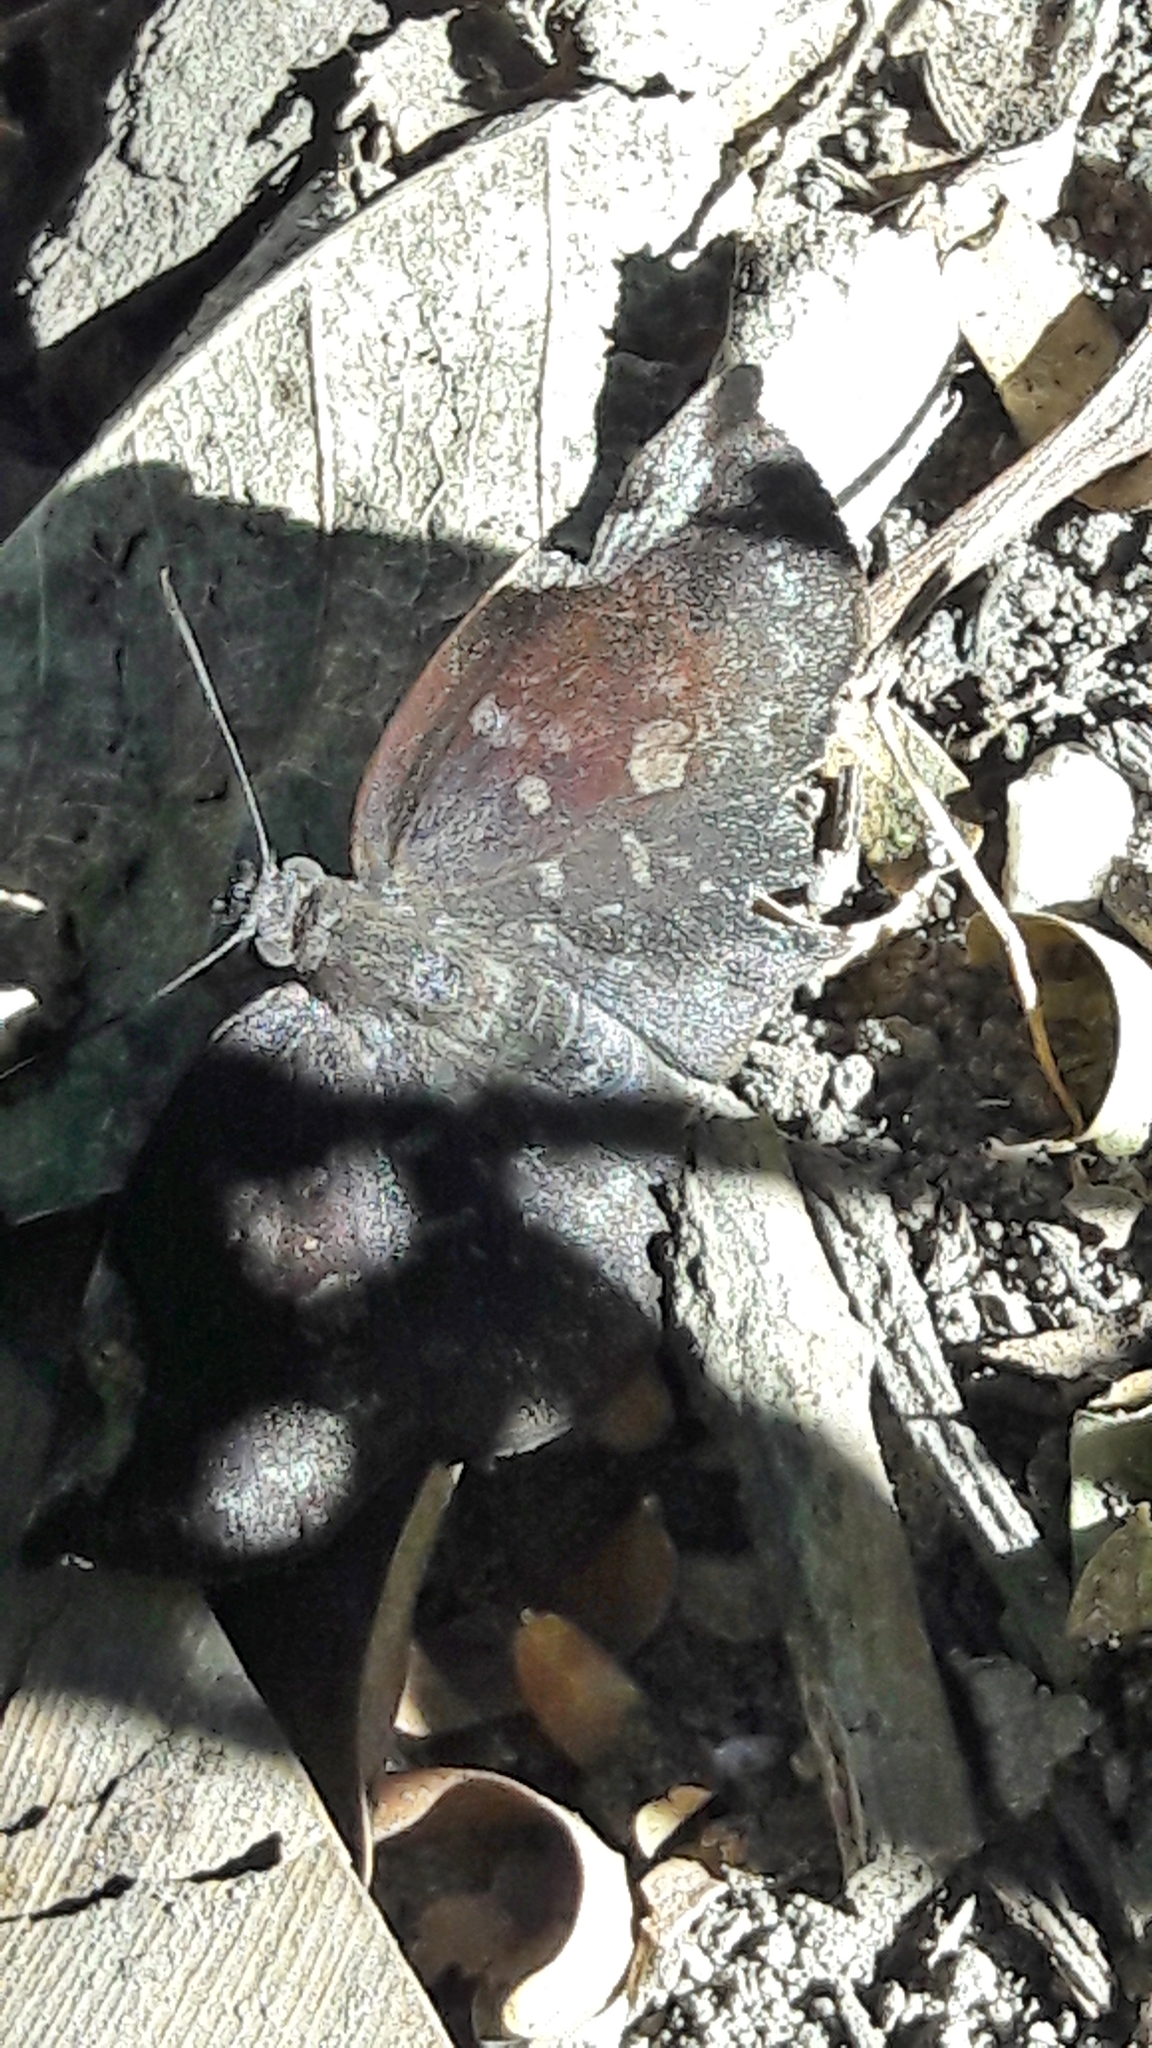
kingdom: Animalia
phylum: Arthropoda
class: Insecta
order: Lepidoptera
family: Hesperiidae
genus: Achlyodes
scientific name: Achlyodes thraso
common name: Sickle-winged skipper
